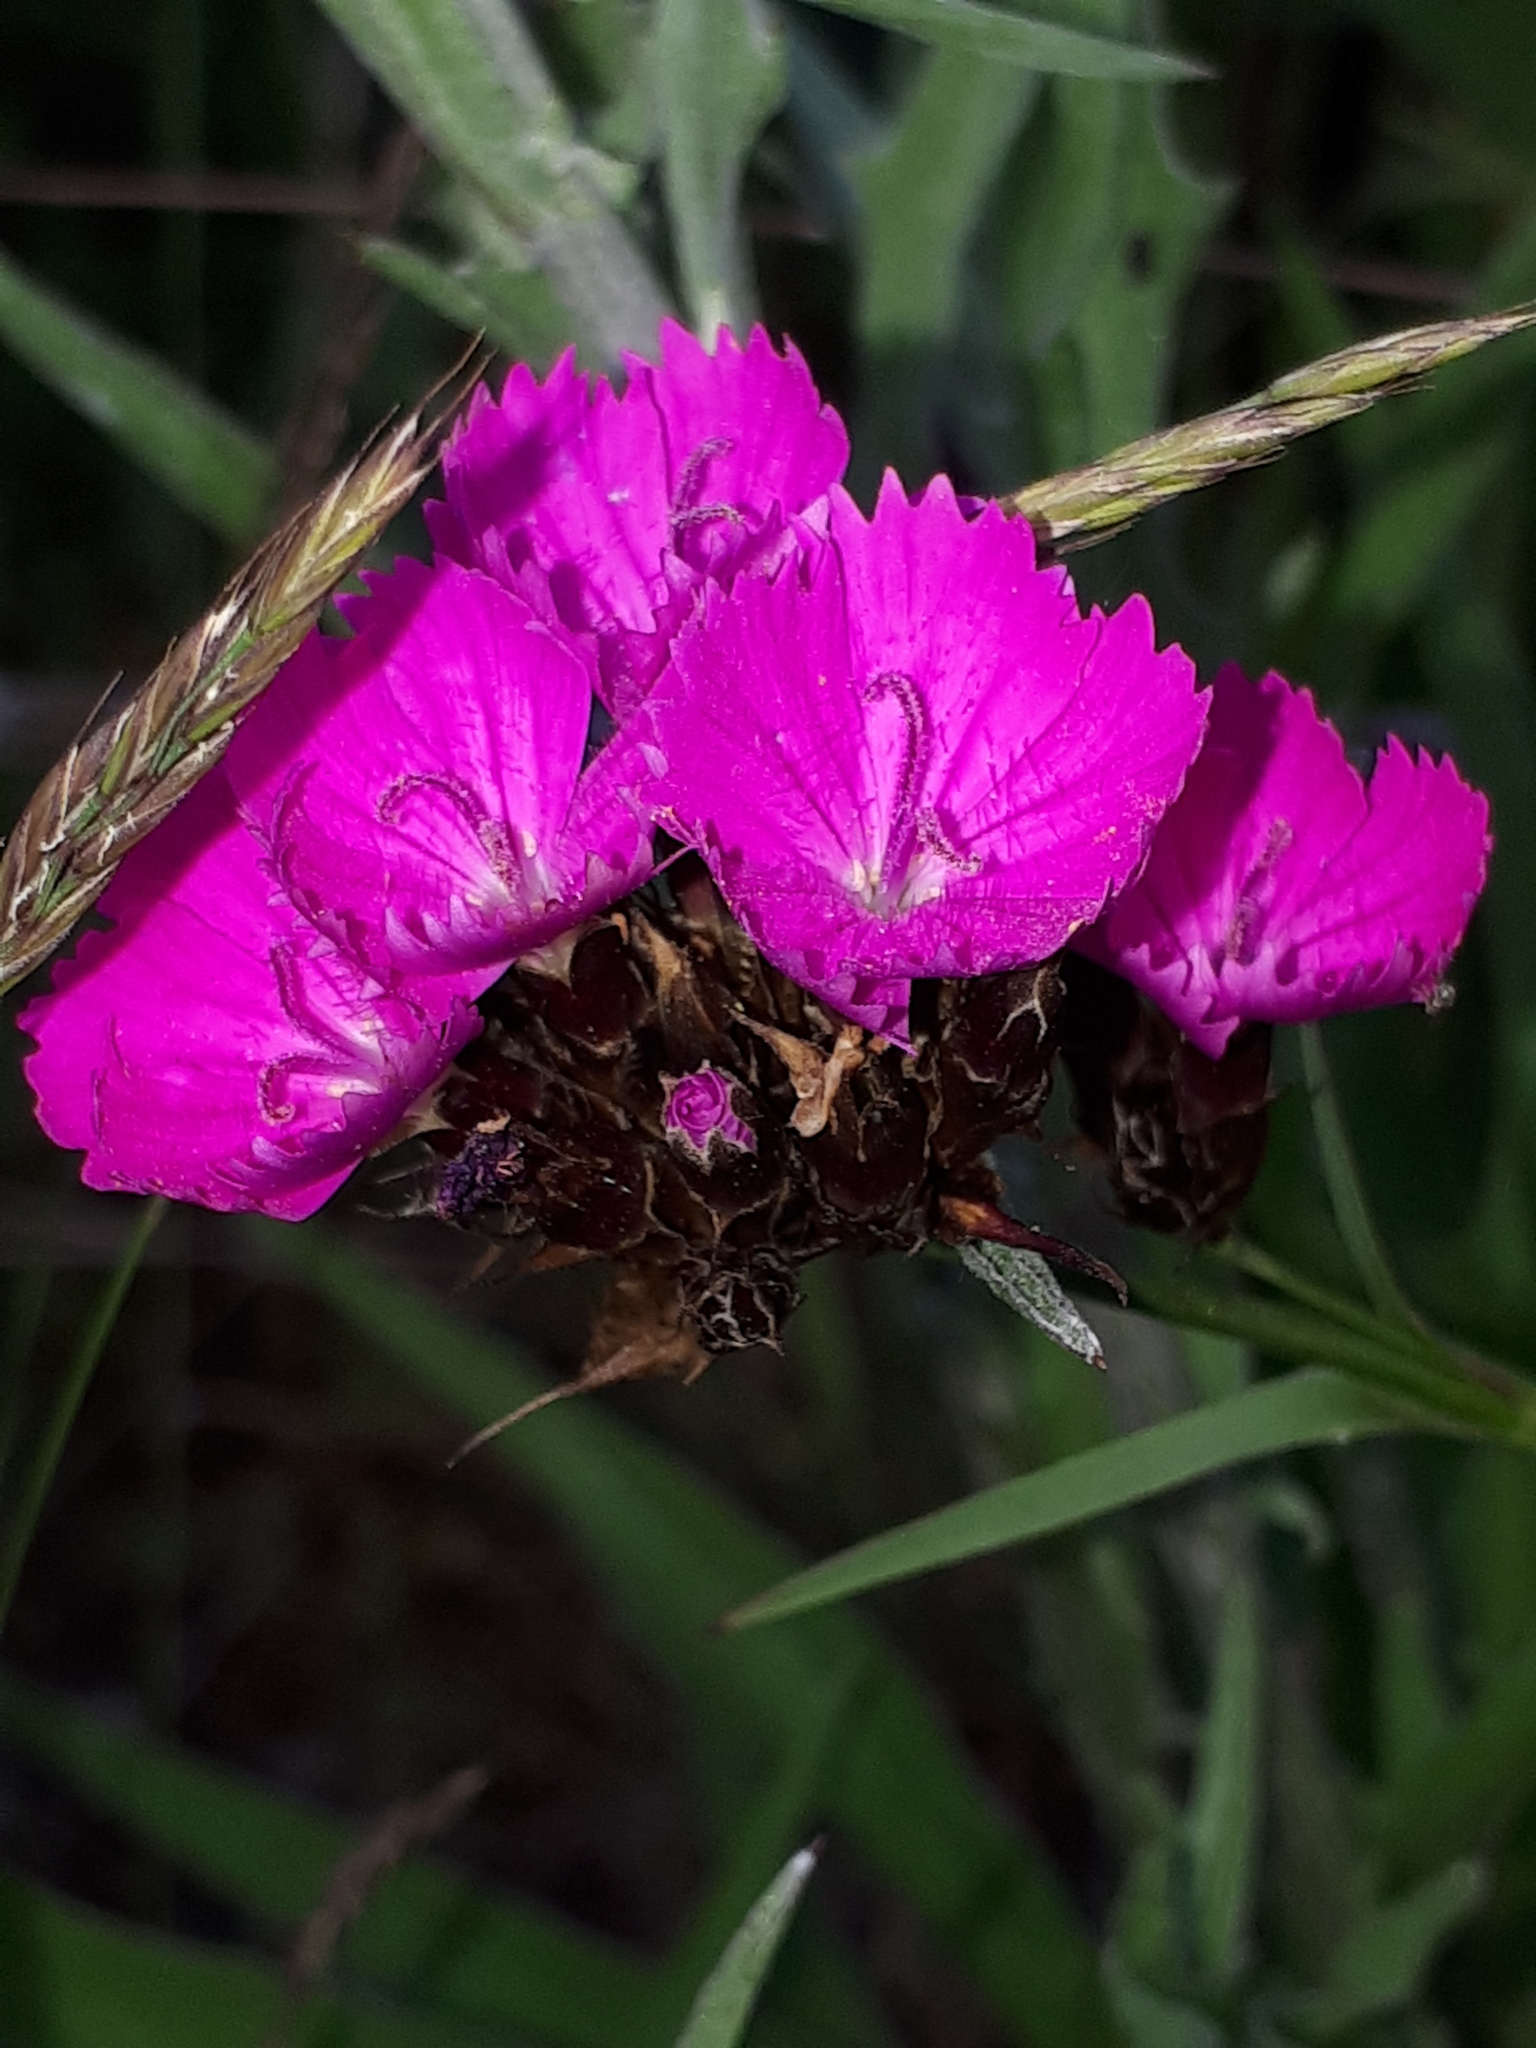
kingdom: Plantae
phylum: Tracheophyta
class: Magnoliopsida
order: Caryophyllales
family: Caryophyllaceae
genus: Dianthus
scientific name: Dianthus carthusianorum
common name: Carthusian pink
